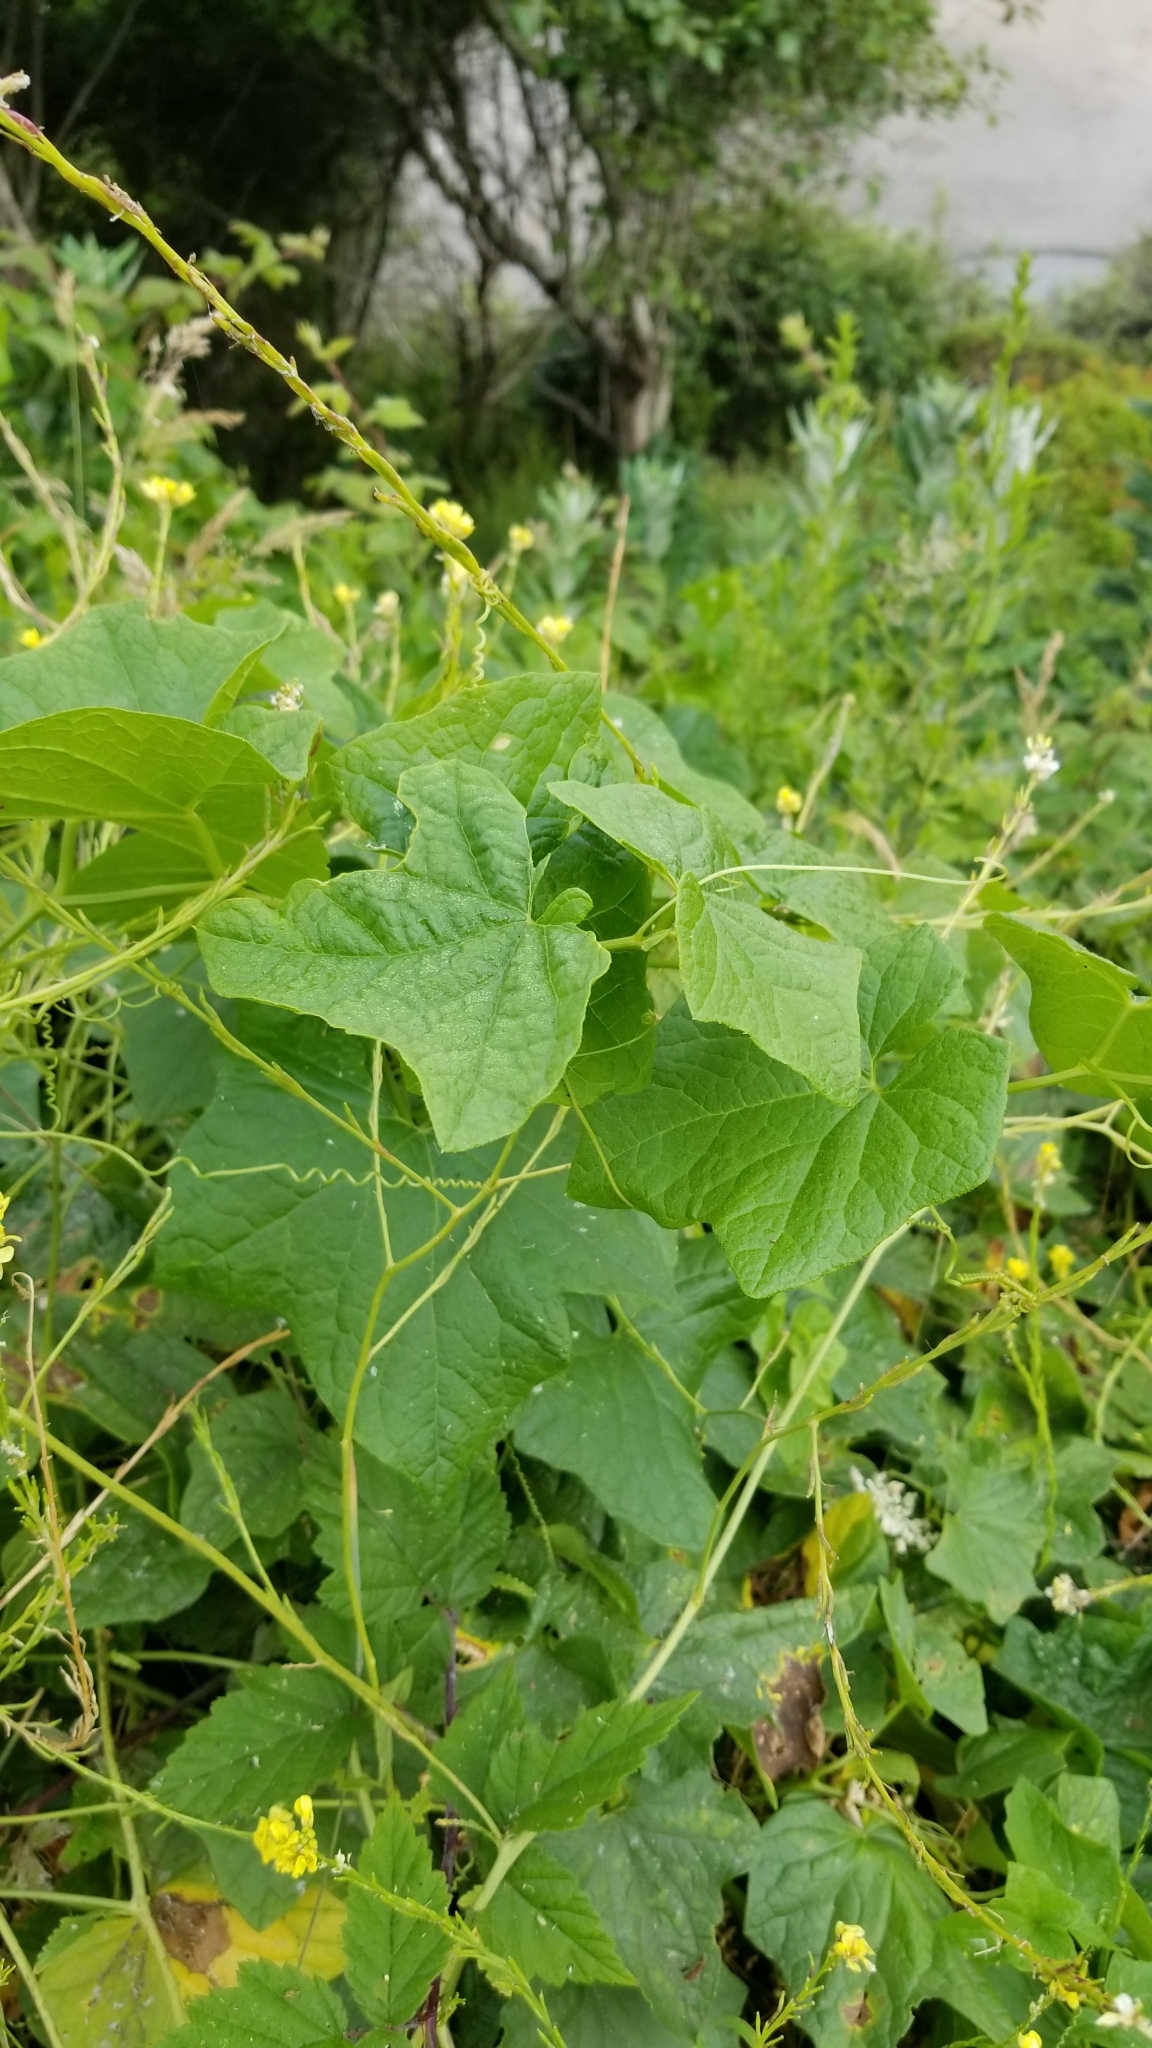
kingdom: Plantae
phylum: Tracheophyta
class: Magnoliopsida
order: Cucurbitales
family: Cucurbitaceae
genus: Marah
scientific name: Marah oregana
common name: Coastal manroot
